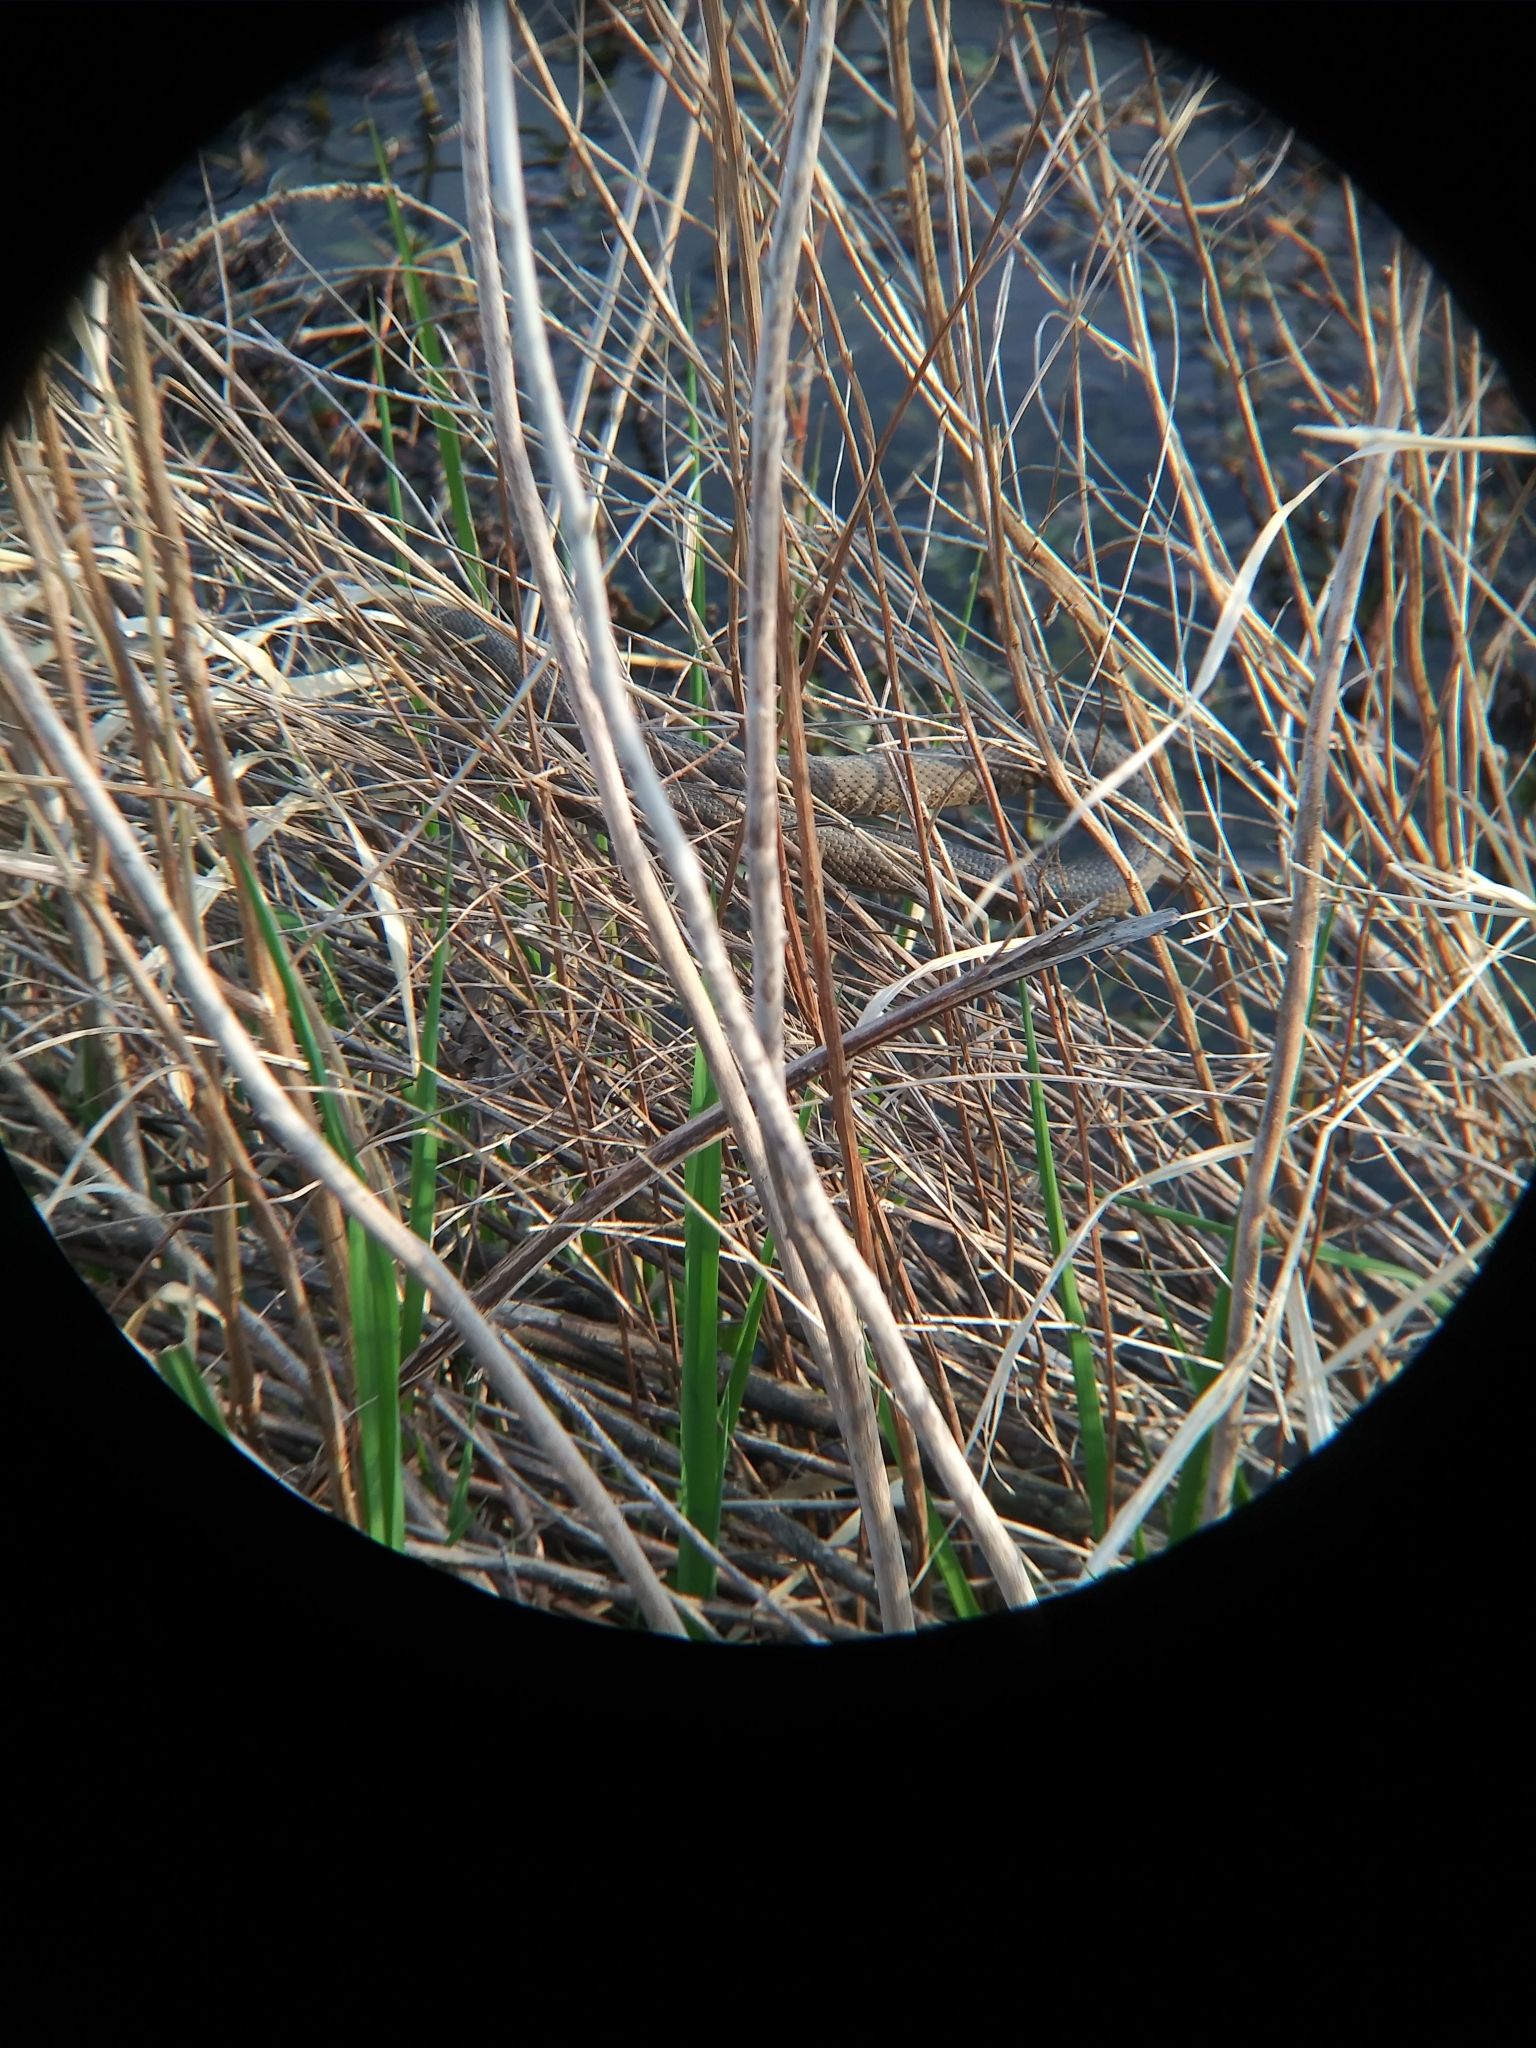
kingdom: Animalia
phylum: Chordata
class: Squamata
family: Colubridae
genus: Nerodia
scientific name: Nerodia sipedon
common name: Northern water snake
